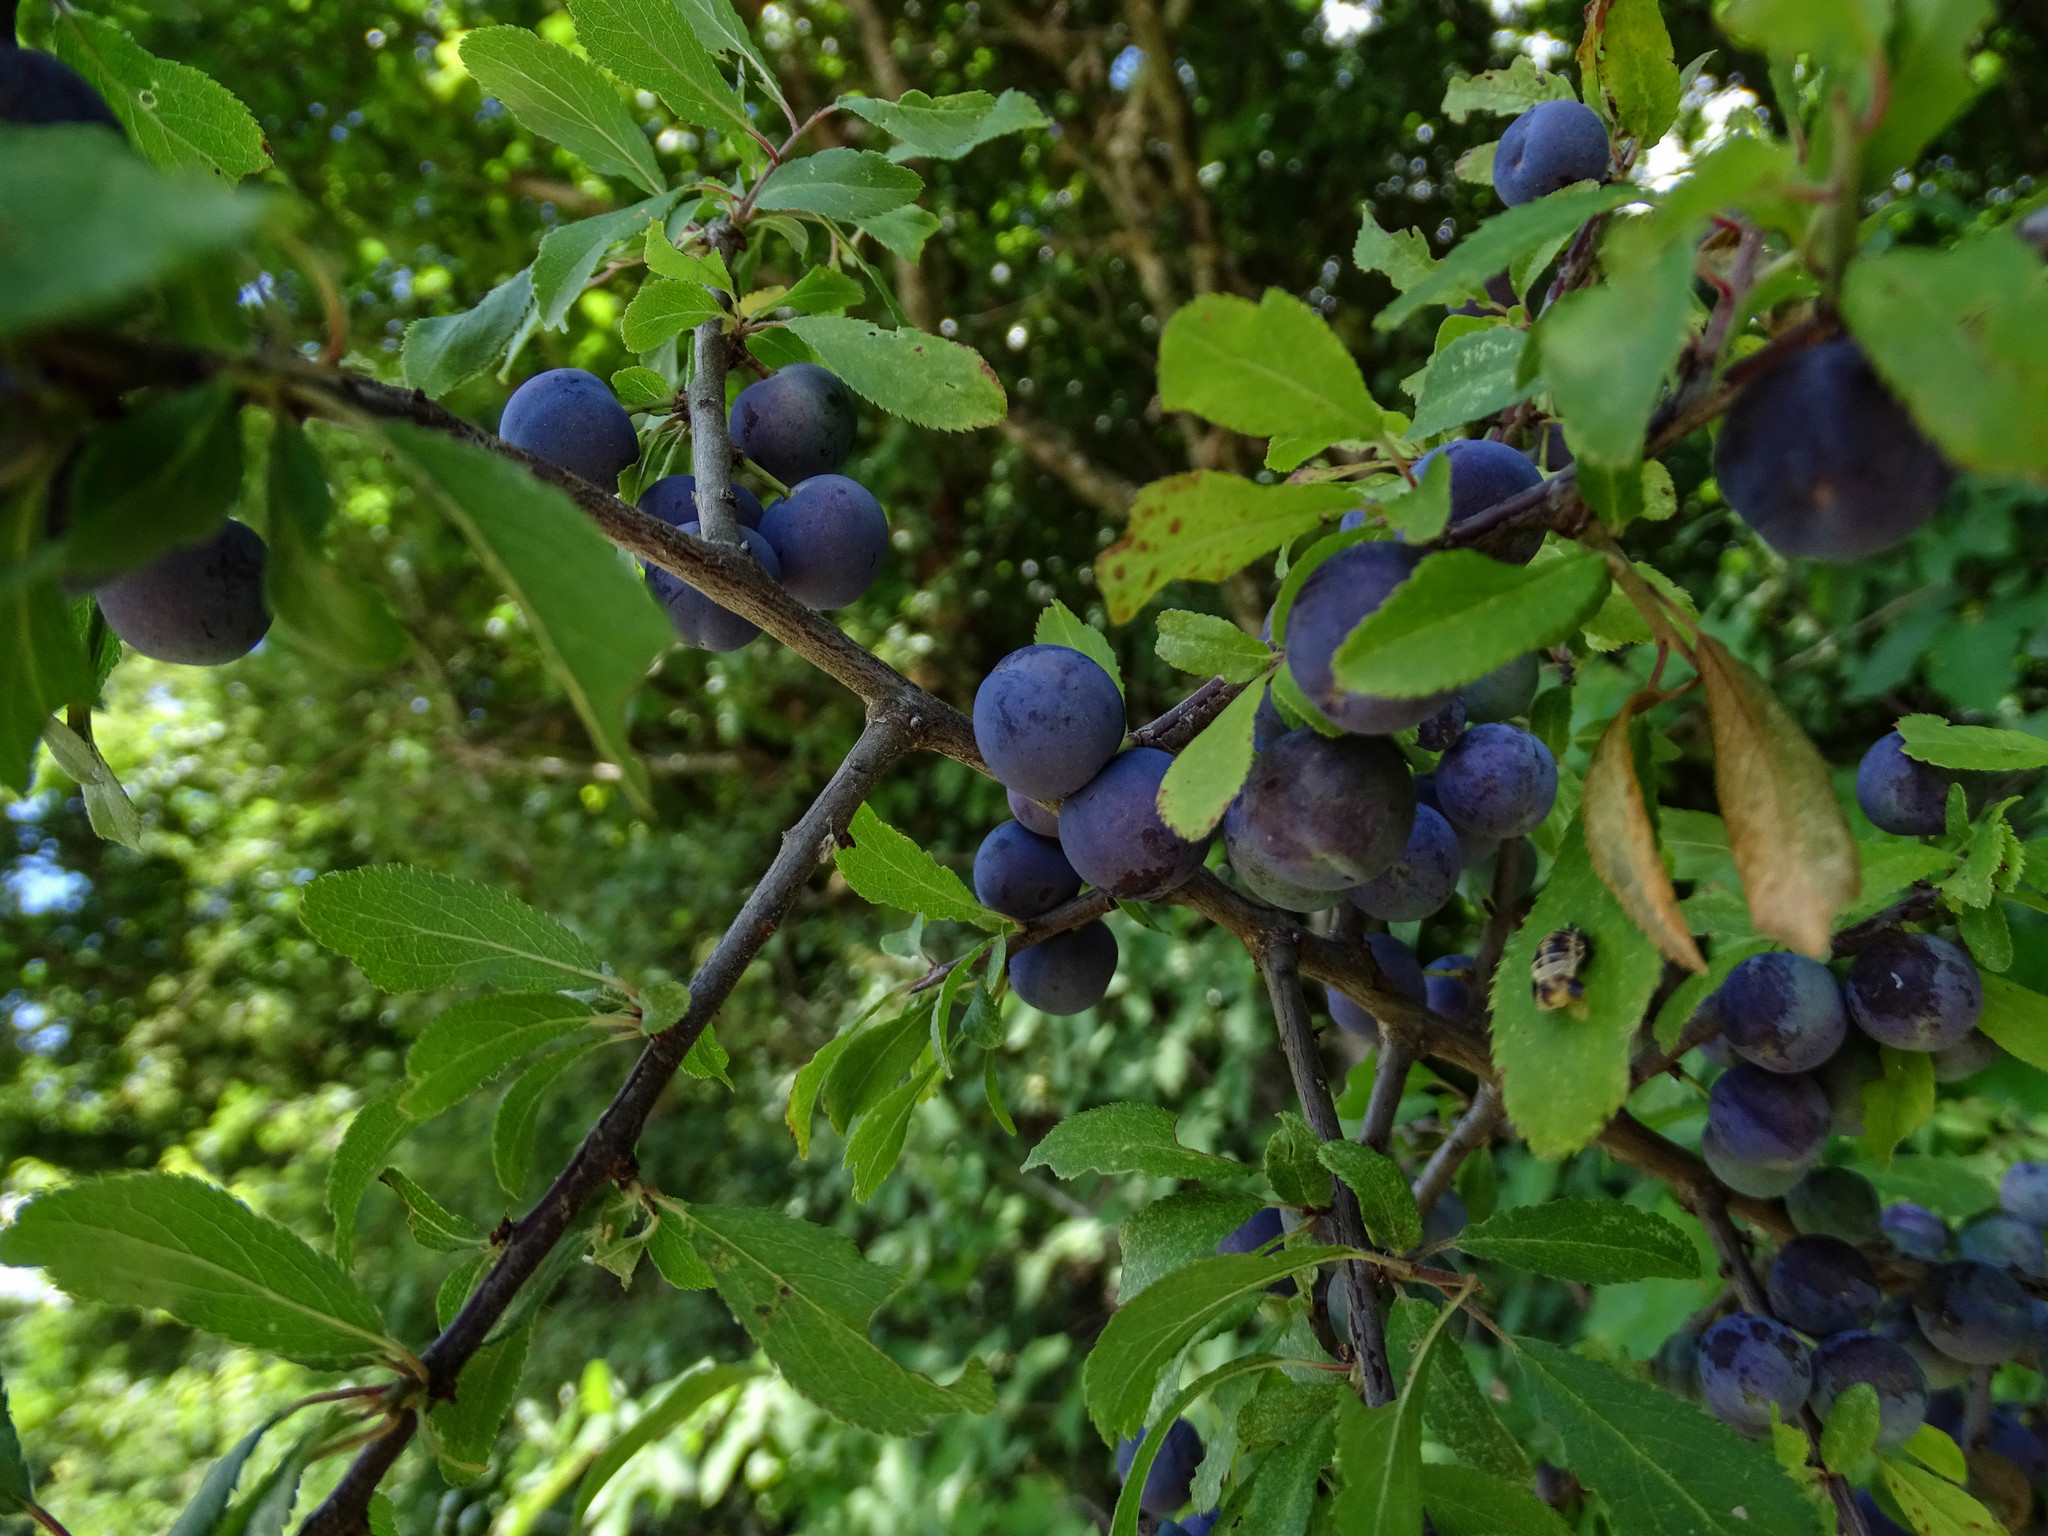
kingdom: Plantae
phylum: Tracheophyta
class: Magnoliopsida
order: Rosales
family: Rosaceae
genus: Prunus
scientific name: Prunus spinosa
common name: Blackthorn
